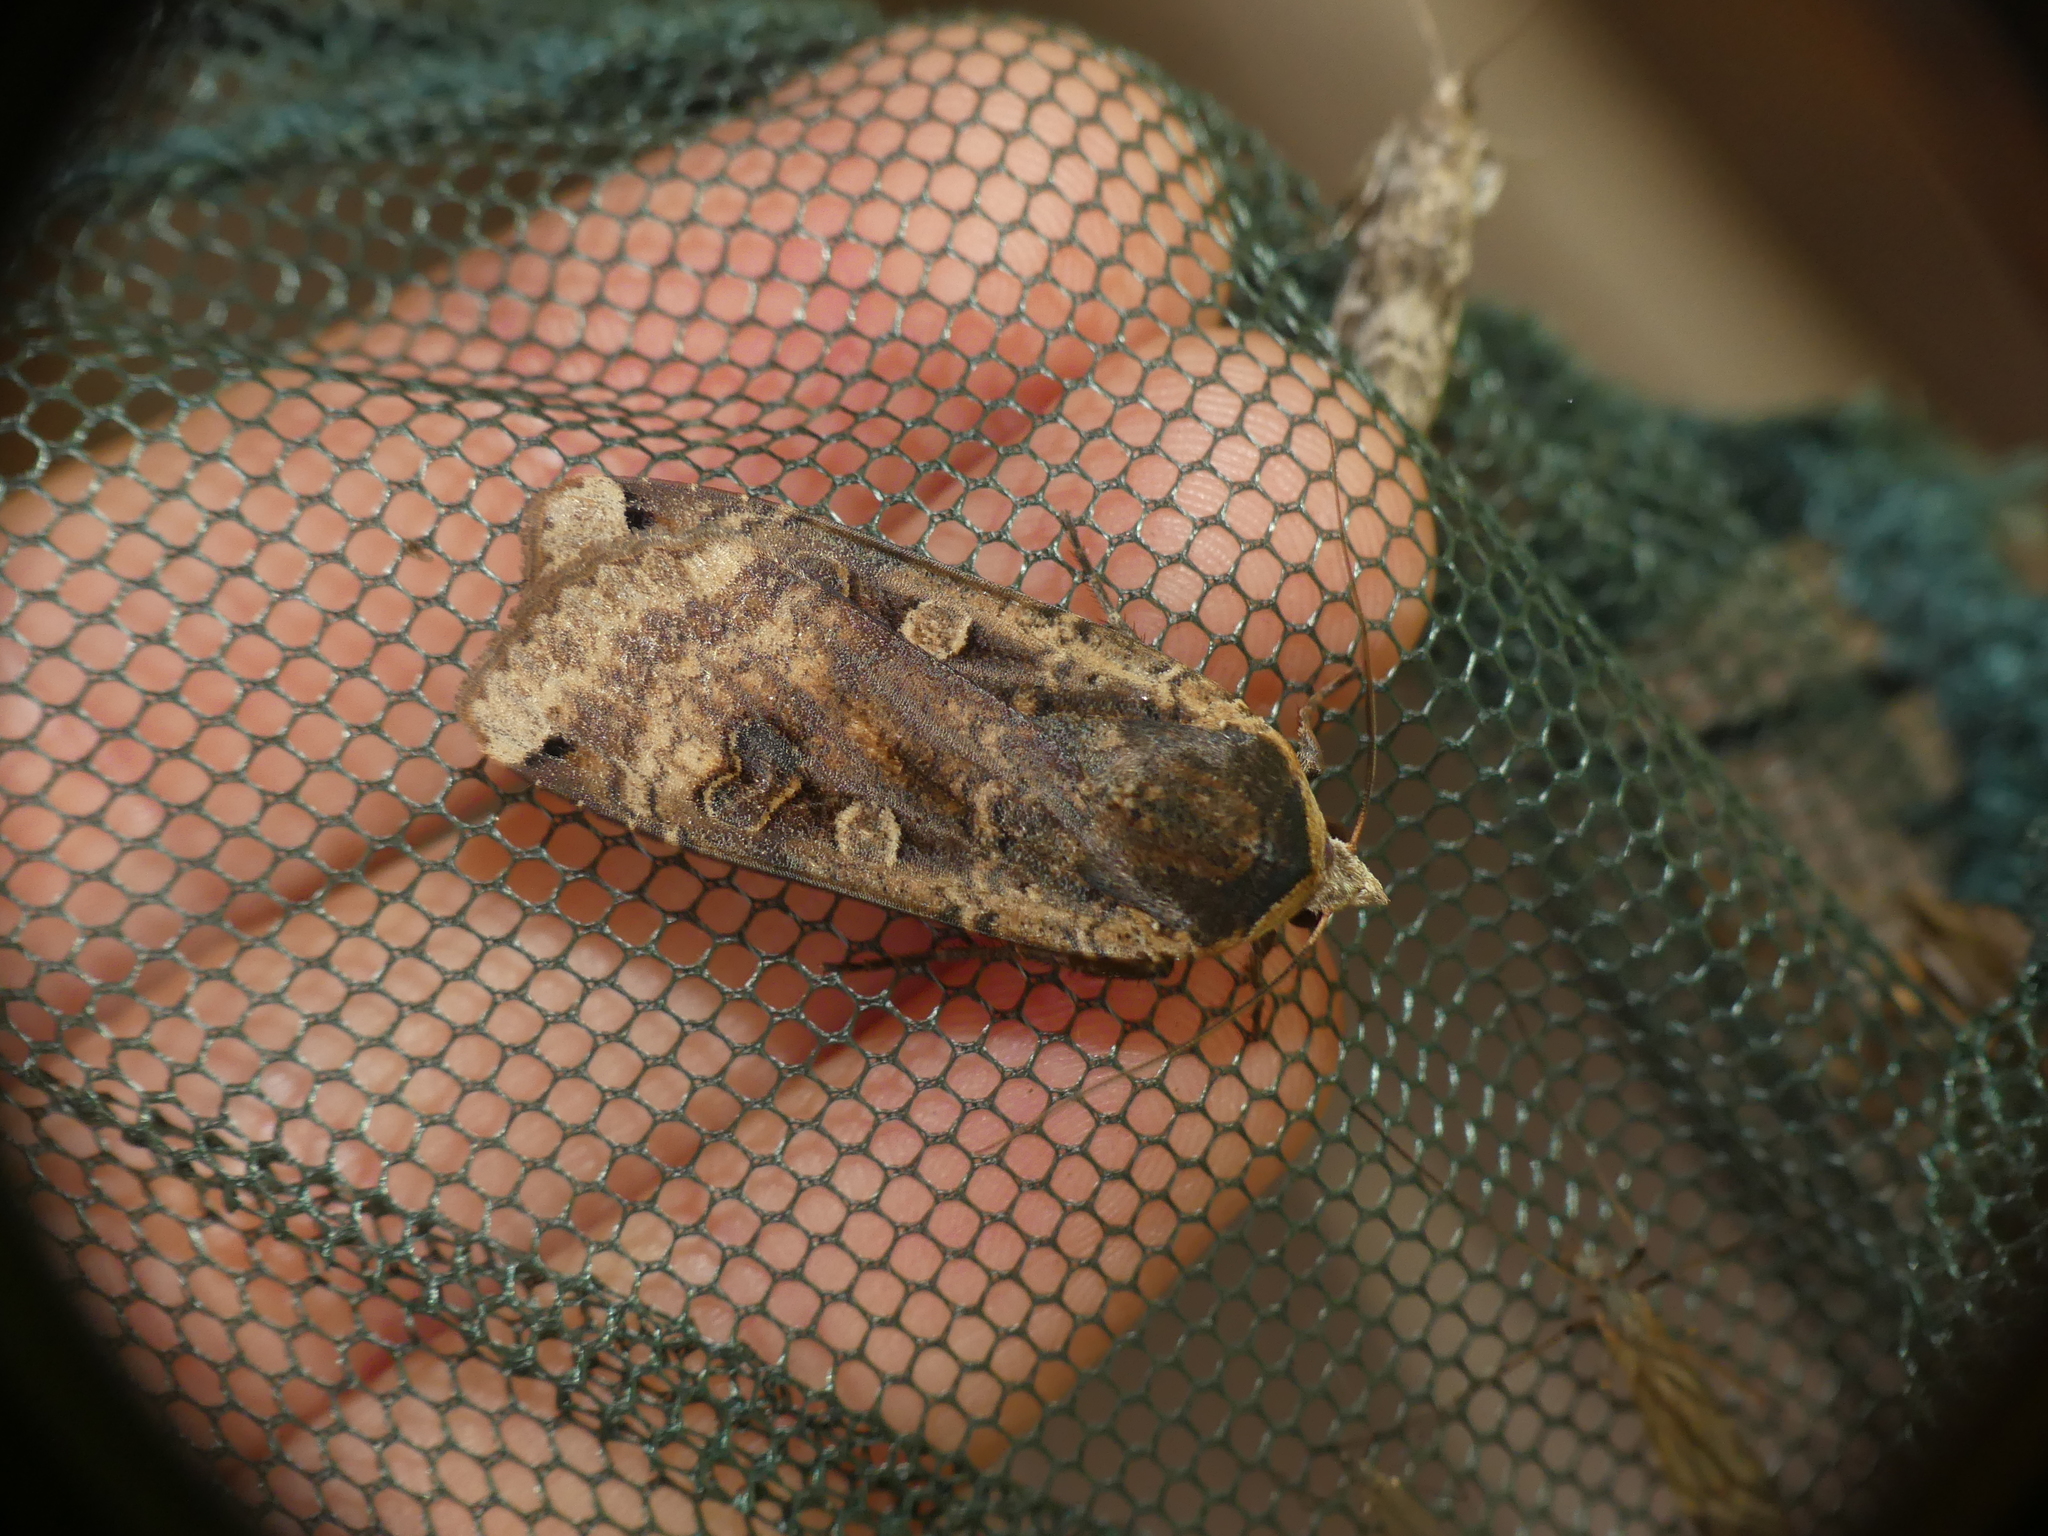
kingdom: Animalia
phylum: Arthropoda
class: Insecta
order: Lepidoptera
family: Noctuidae
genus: Noctua
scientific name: Noctua pronuba
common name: Large yellow underwing
